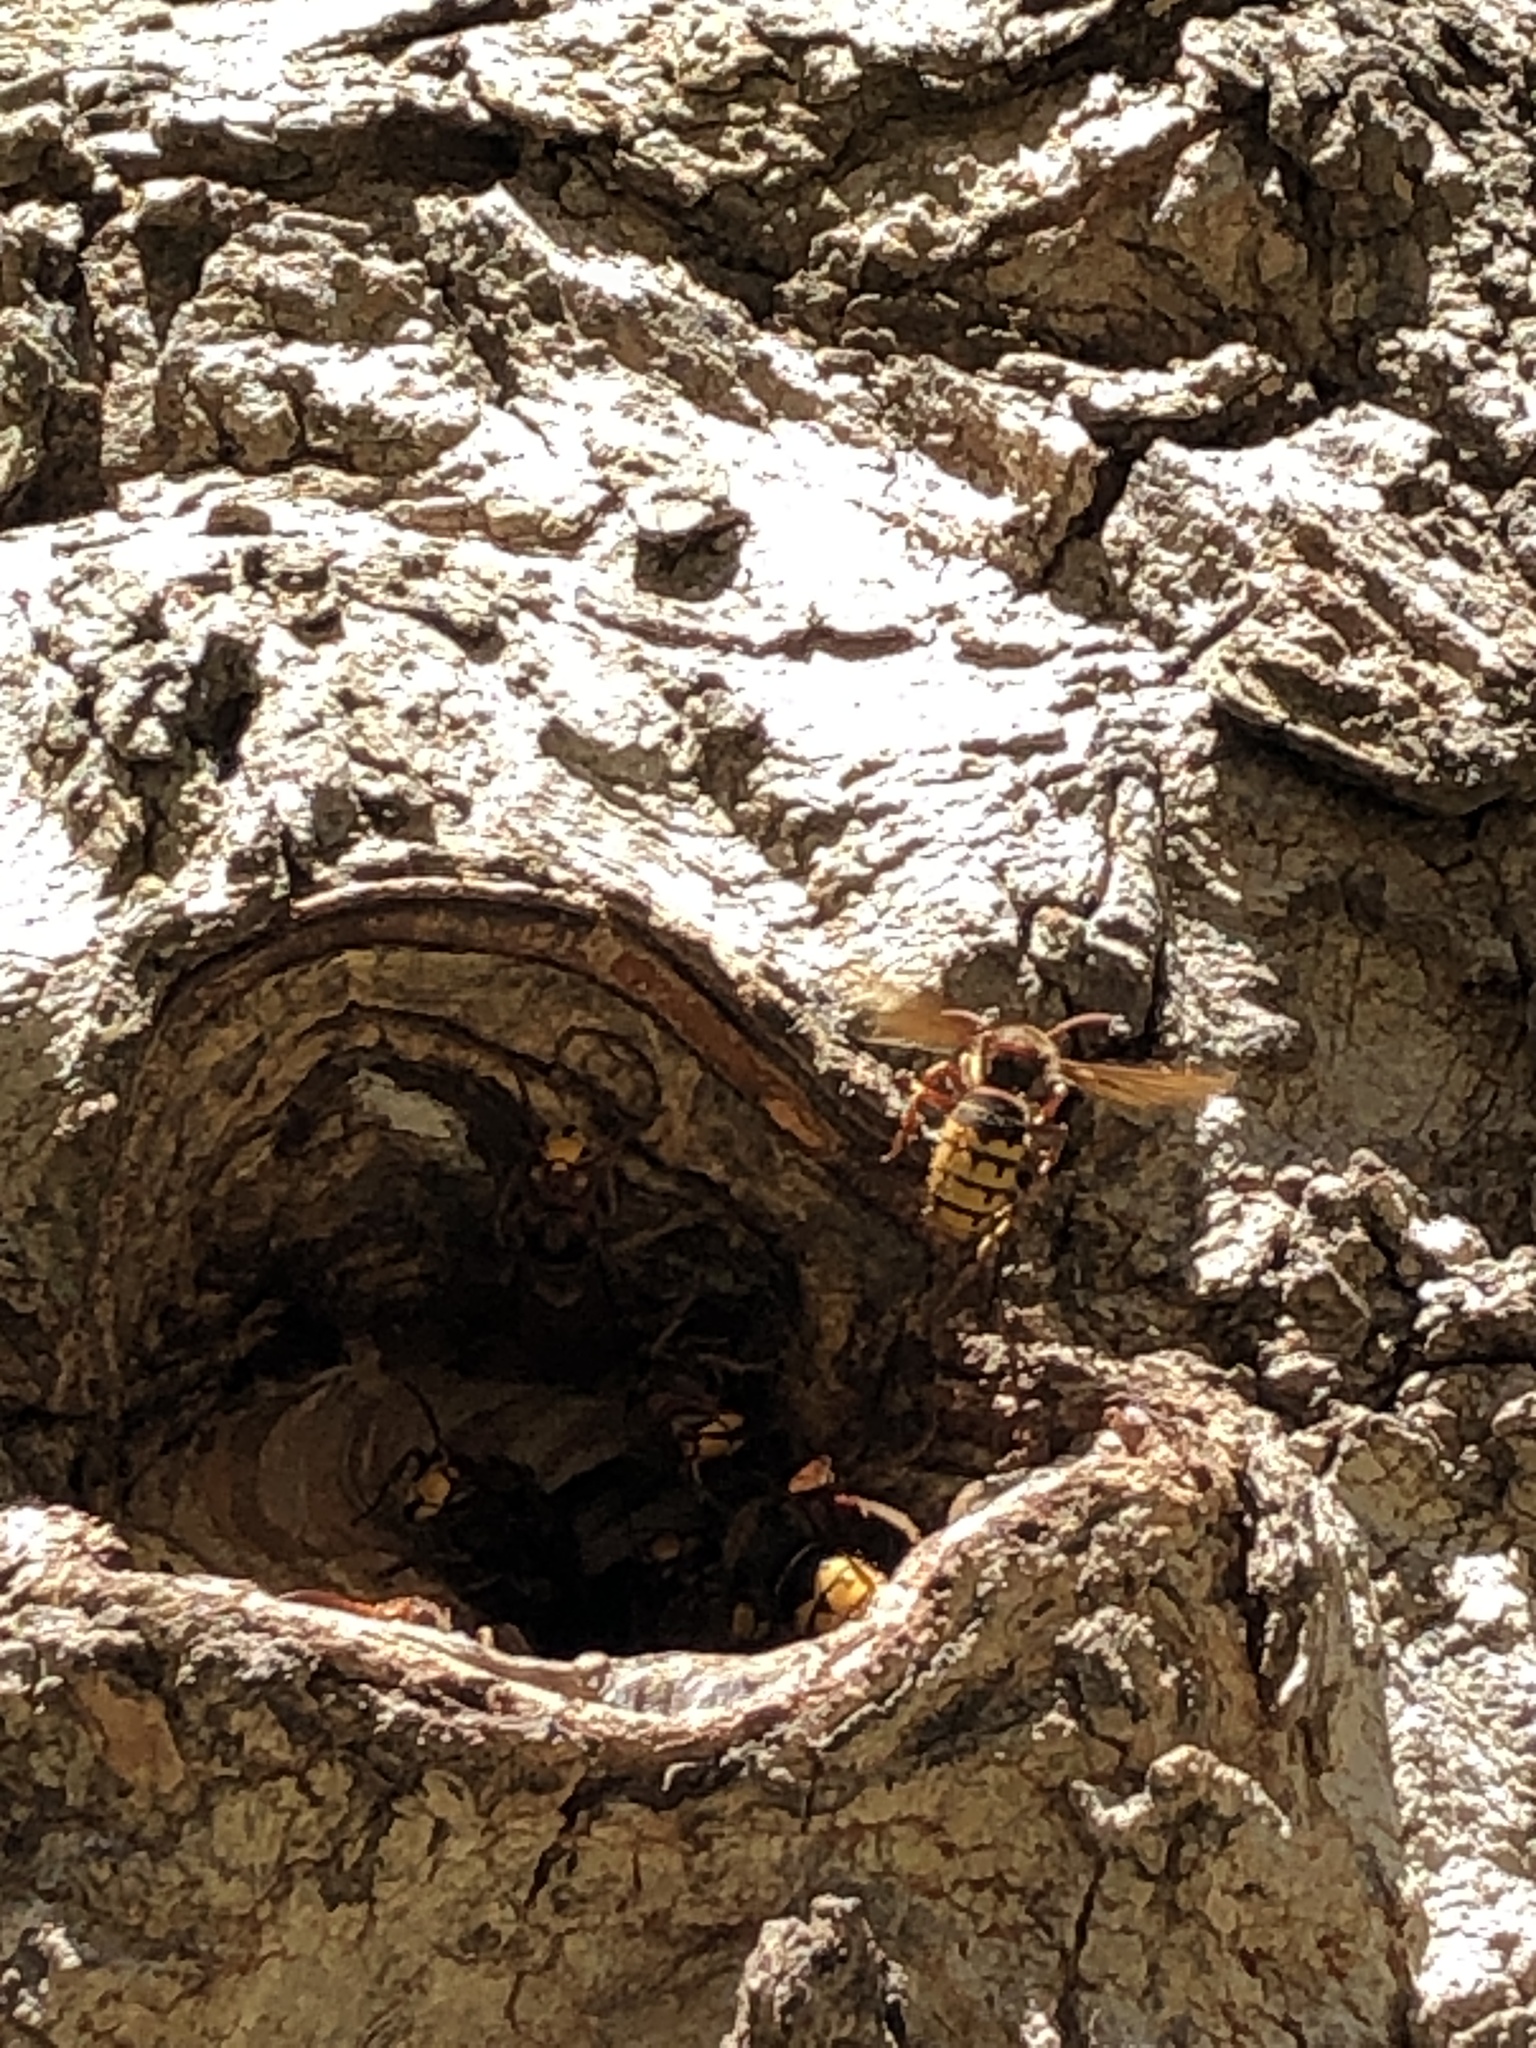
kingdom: Animalia
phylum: Arthropoda
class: Insecta
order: Hymenoptera
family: Vespidae
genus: Vespa
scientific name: Vespa crabro
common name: Hornet
